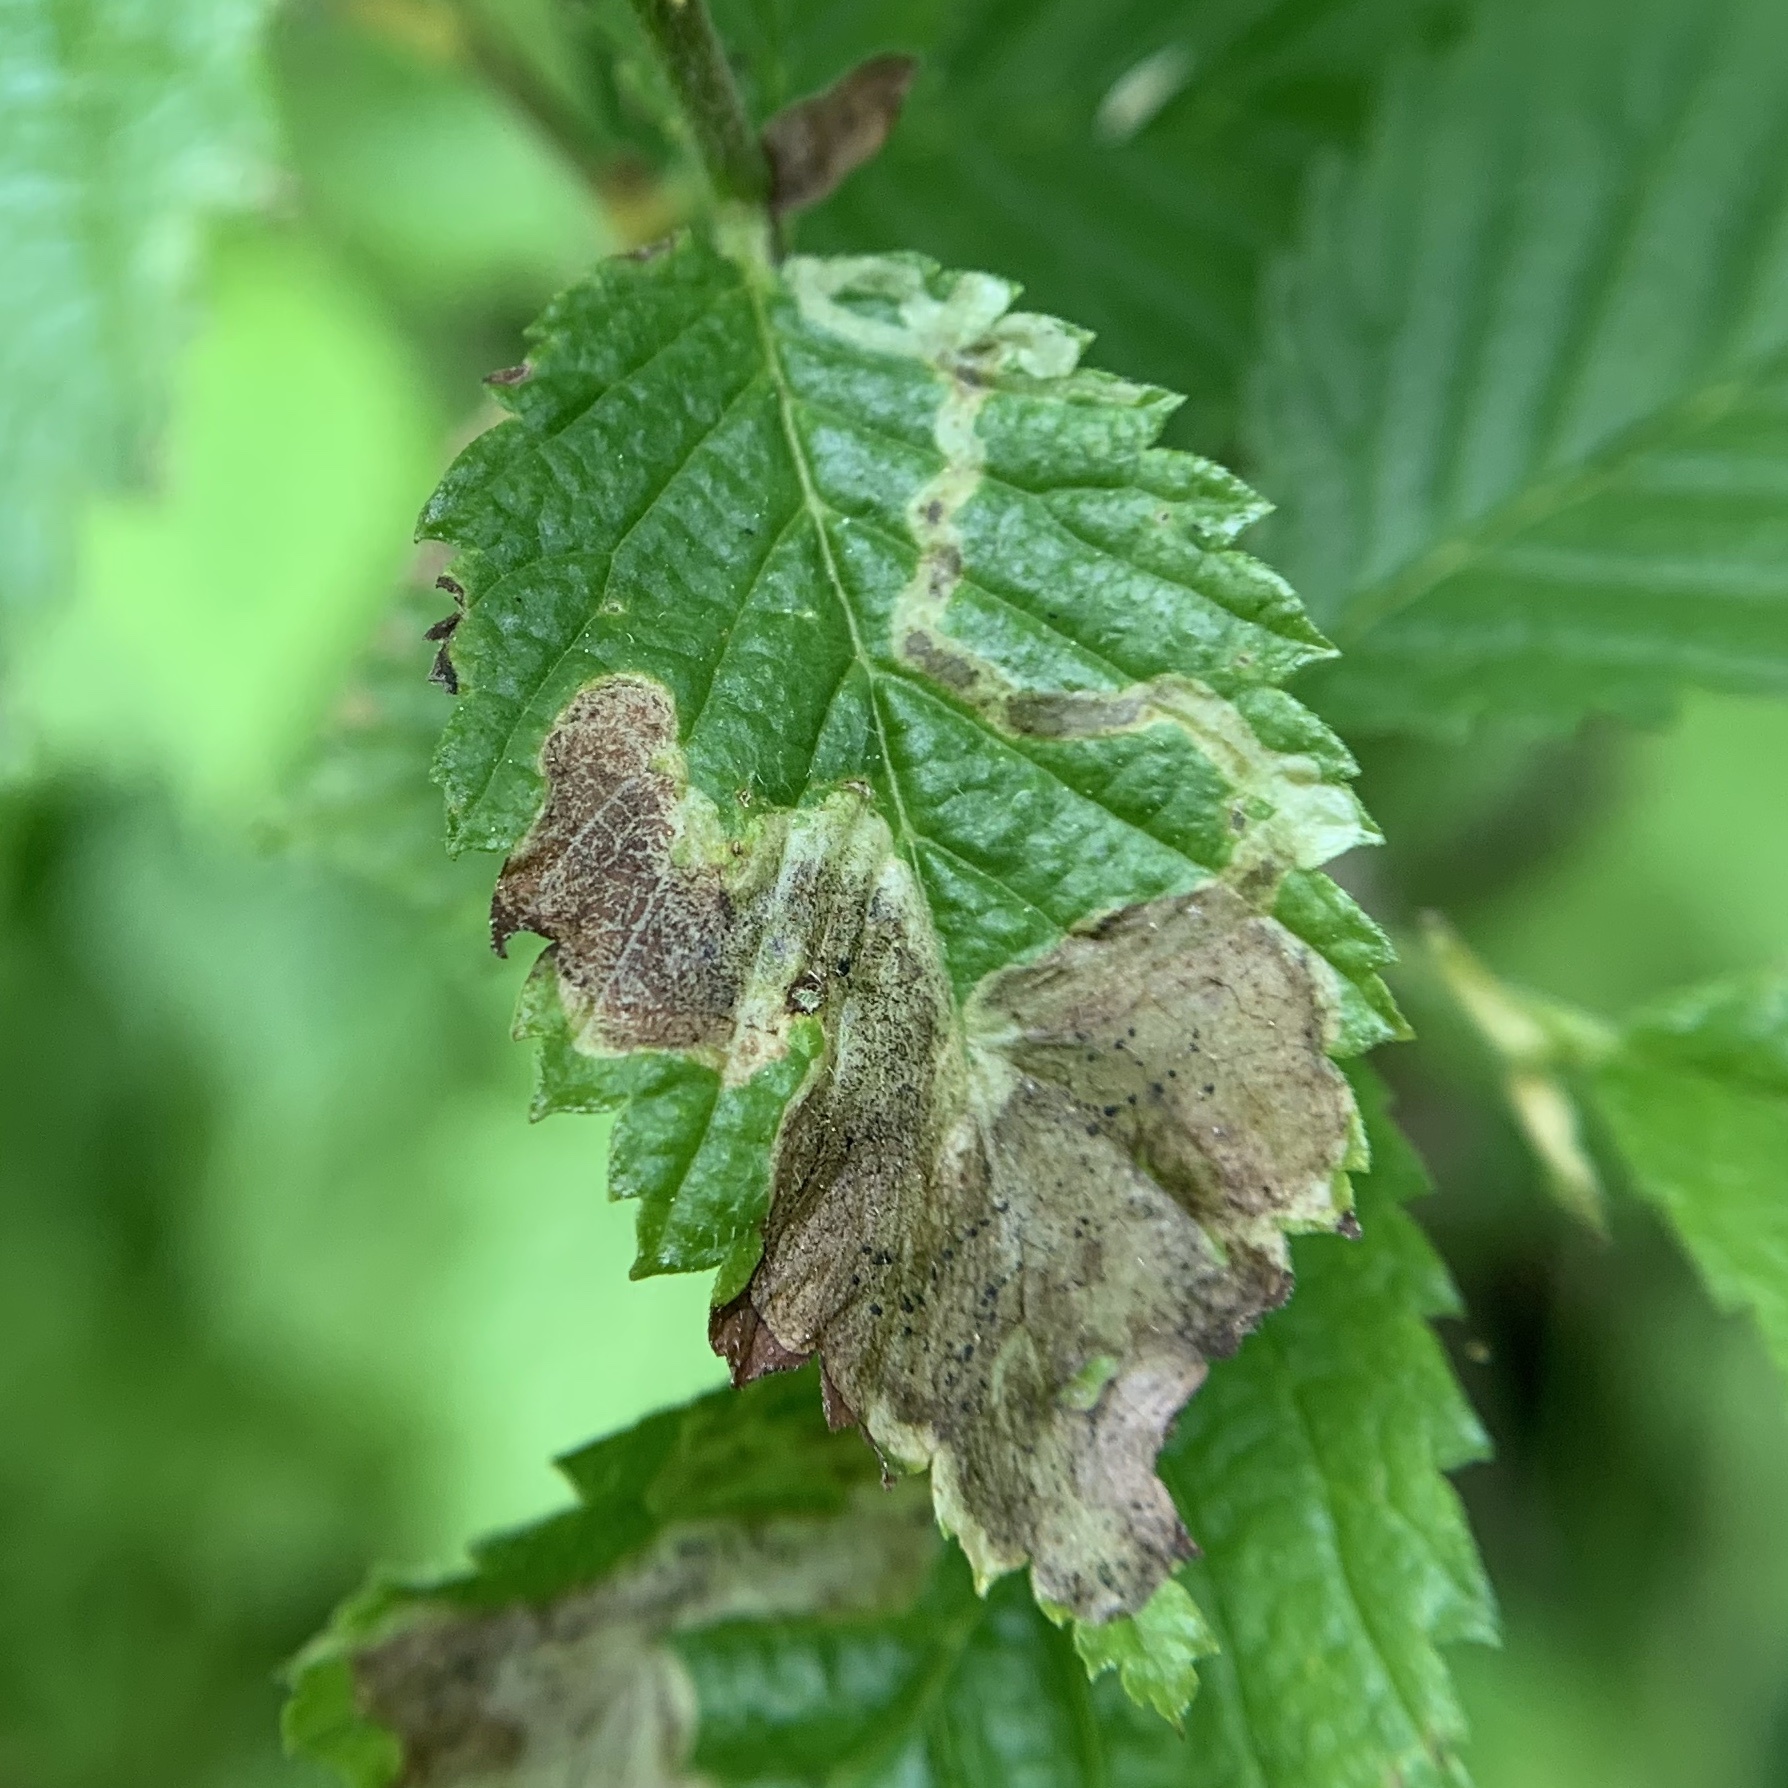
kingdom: Animalia
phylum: Arthropoda
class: Insecta
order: Diptera
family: Agromyzidae
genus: Agromyza
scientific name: Agromyza aristata
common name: Elm agromyzid leafminer
